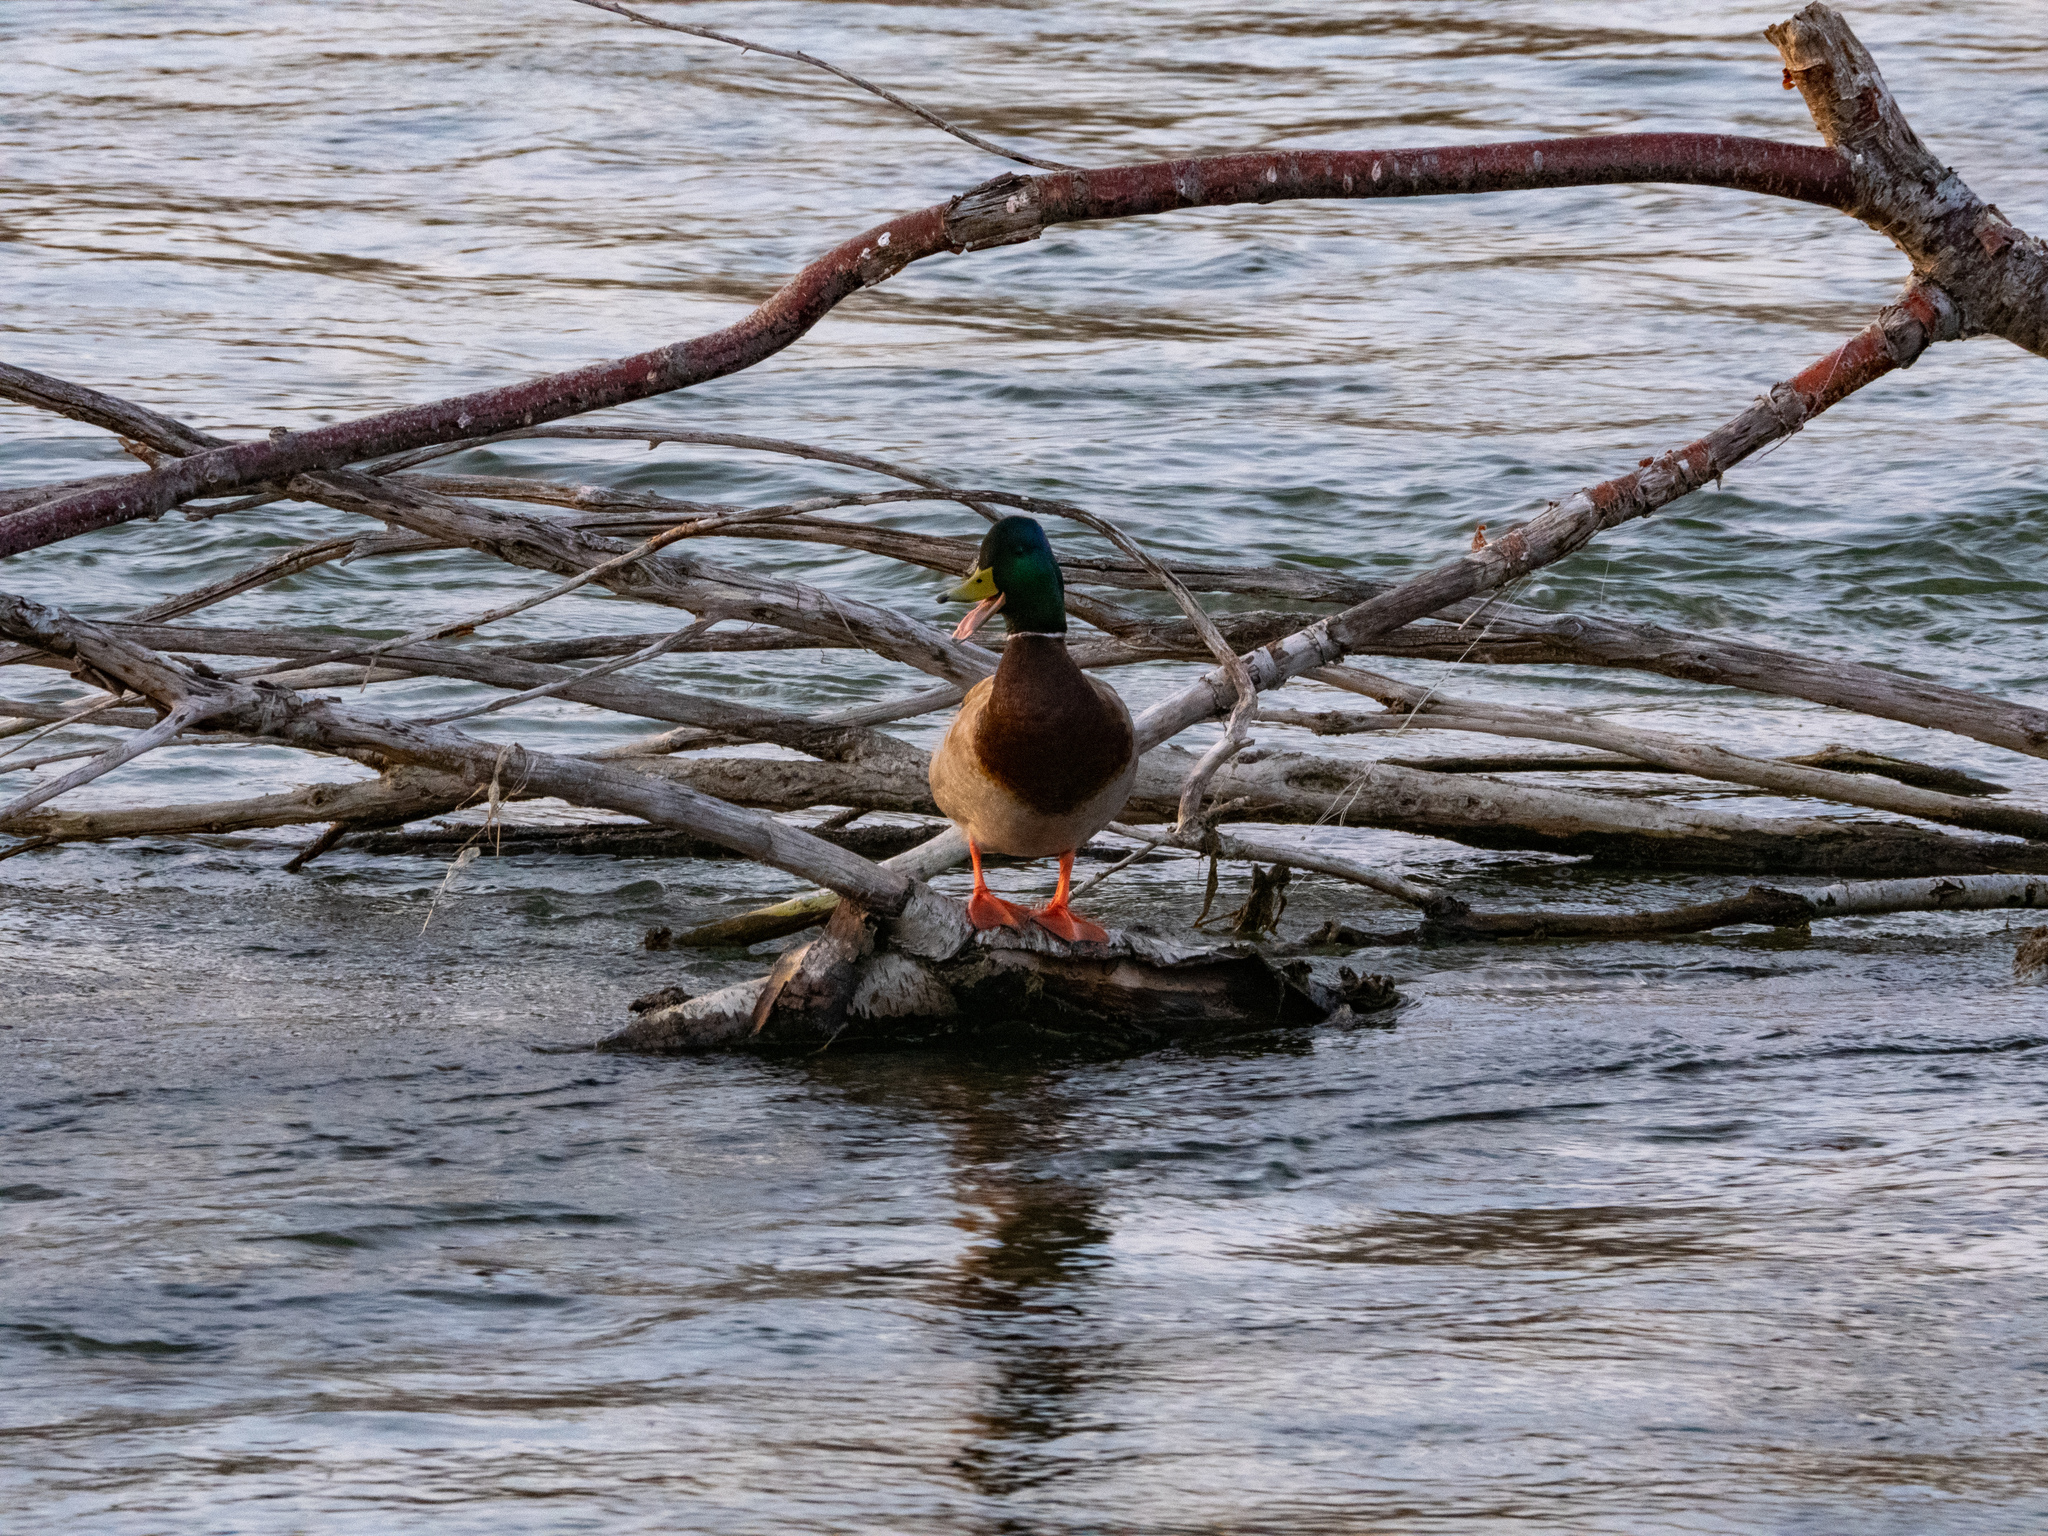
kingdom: Animalia
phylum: Chordata
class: Aves
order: Anseriformes
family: Anatidae
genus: Anas
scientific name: Anas platyrhynchos
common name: Mallard
